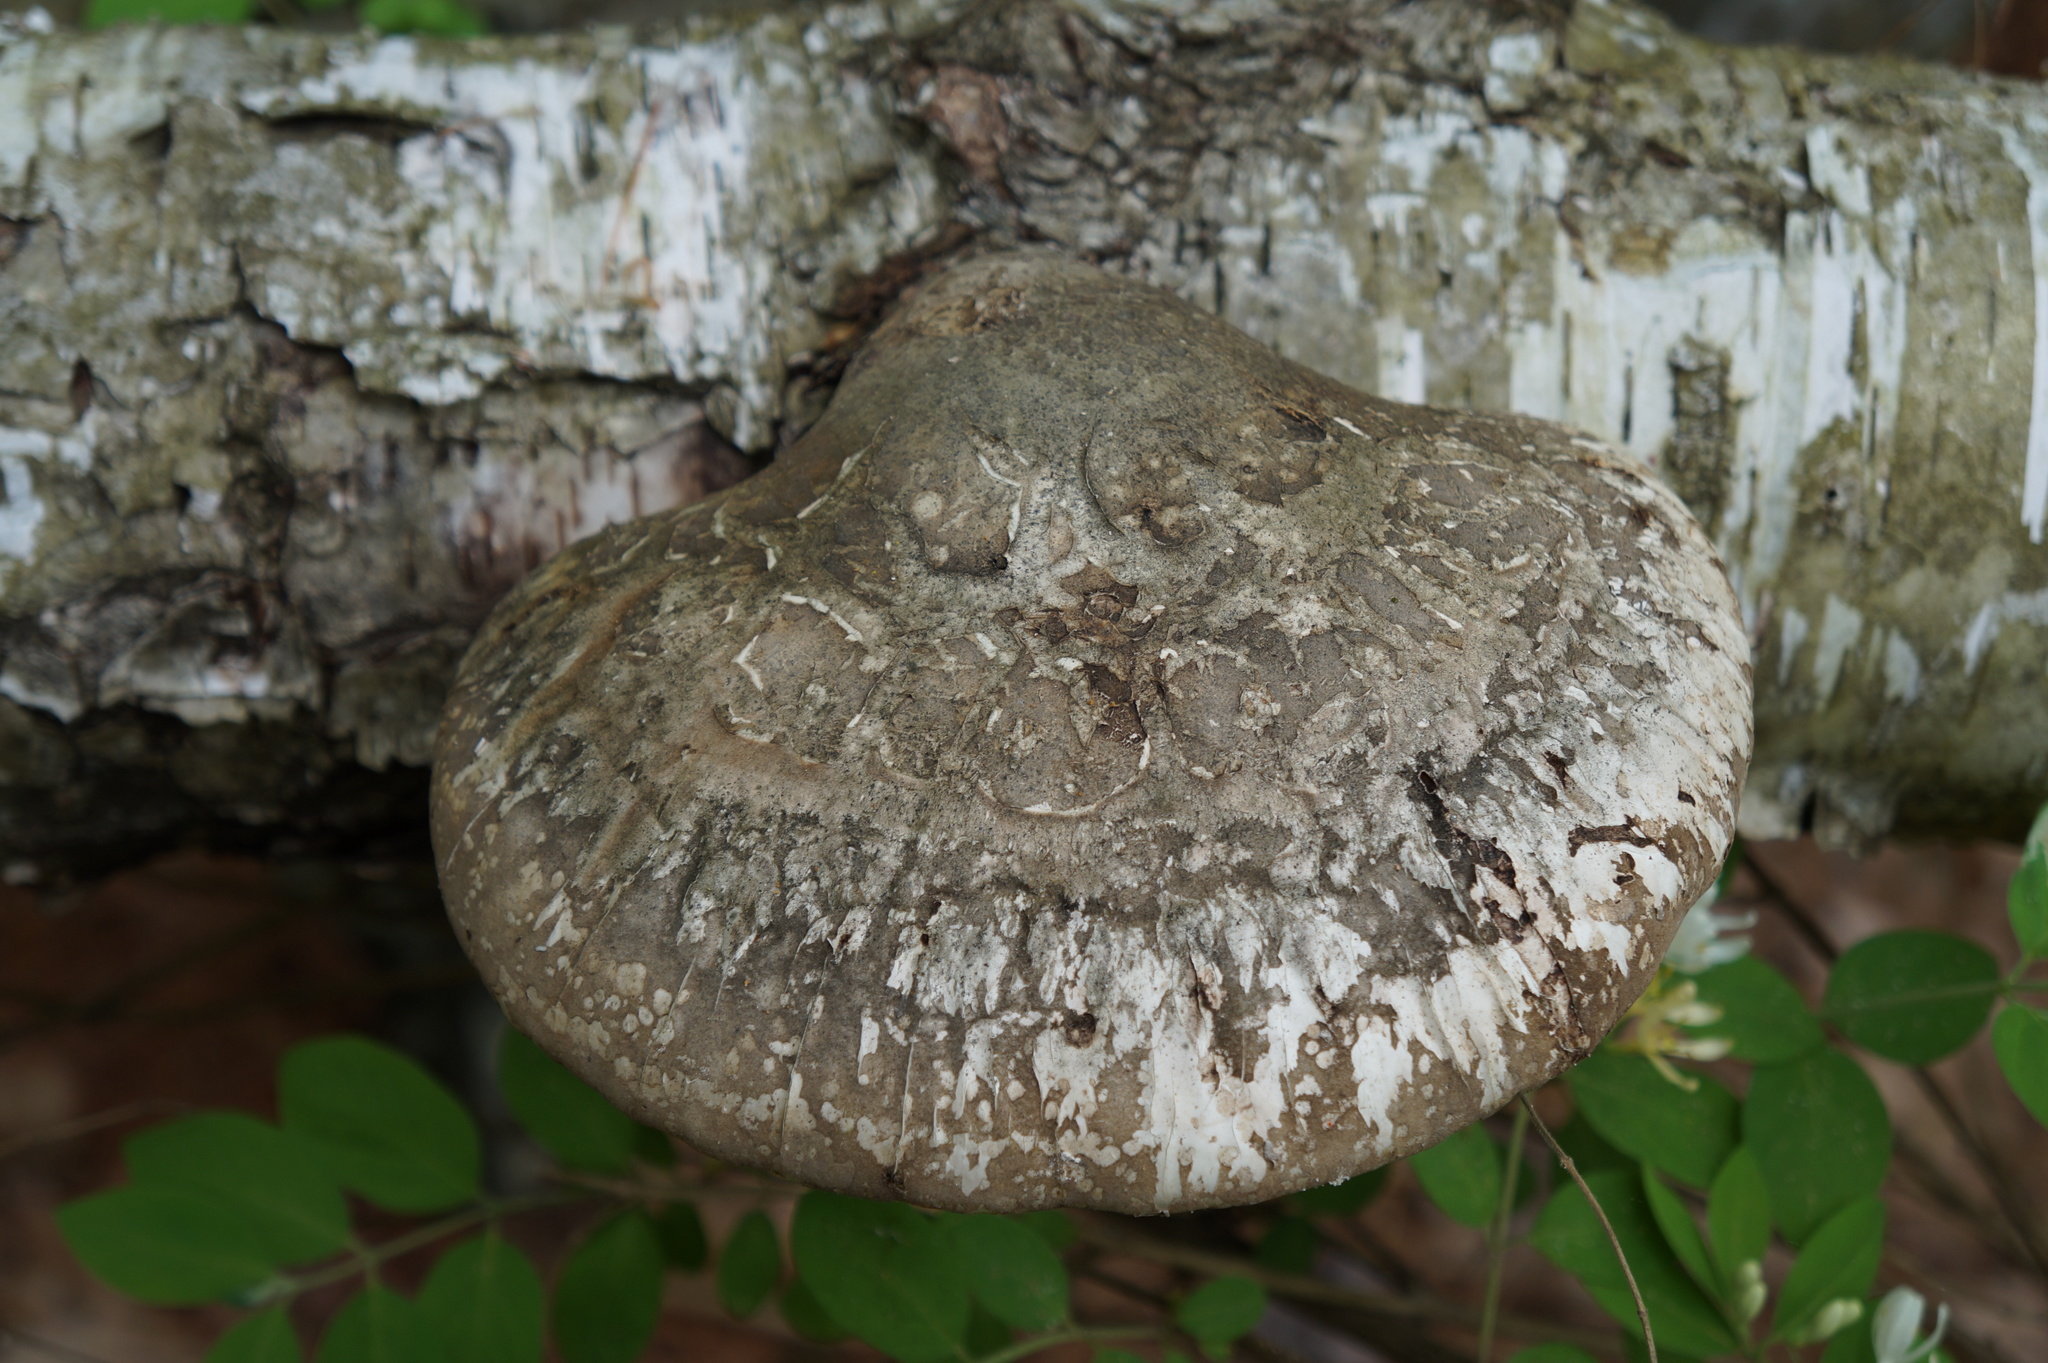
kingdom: Fungi
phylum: Basidiomycota
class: Agaricomycetes
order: Polyporales
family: Fomitopsidaceae
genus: Fomitopsis
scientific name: Fomitopsis betulina
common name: Birch polypore
